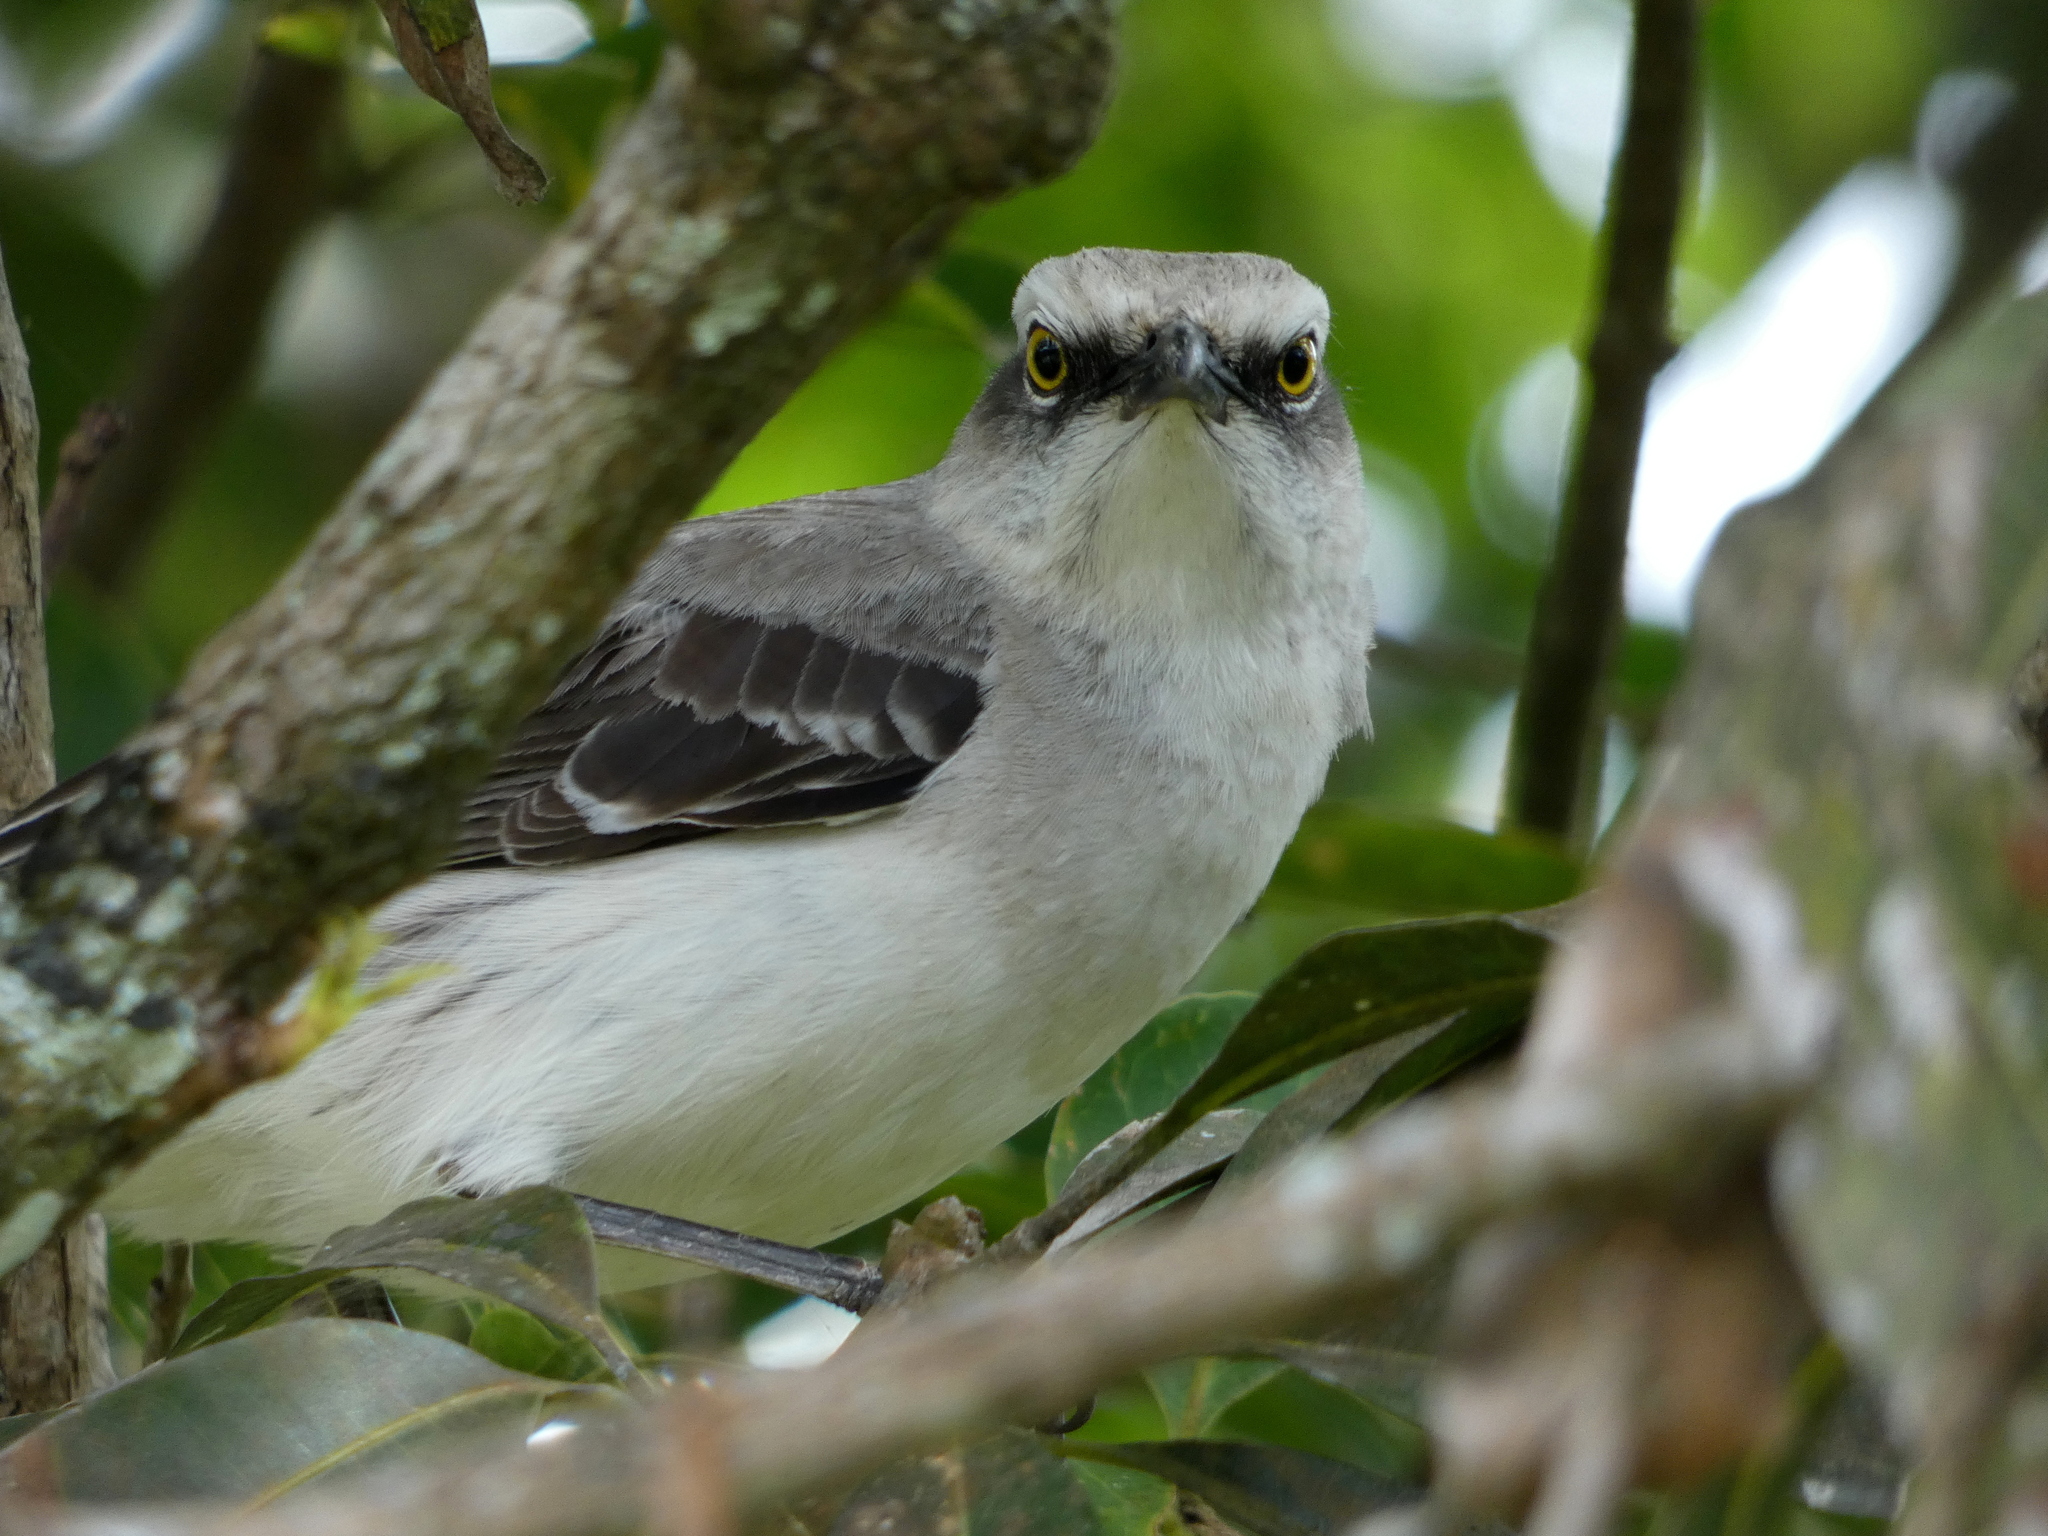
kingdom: Animalia
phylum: Chordata
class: Aves
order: Passeriformes
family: Mimidae
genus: Mimus
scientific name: Mimus gilvus
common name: Tropical mockingbird
